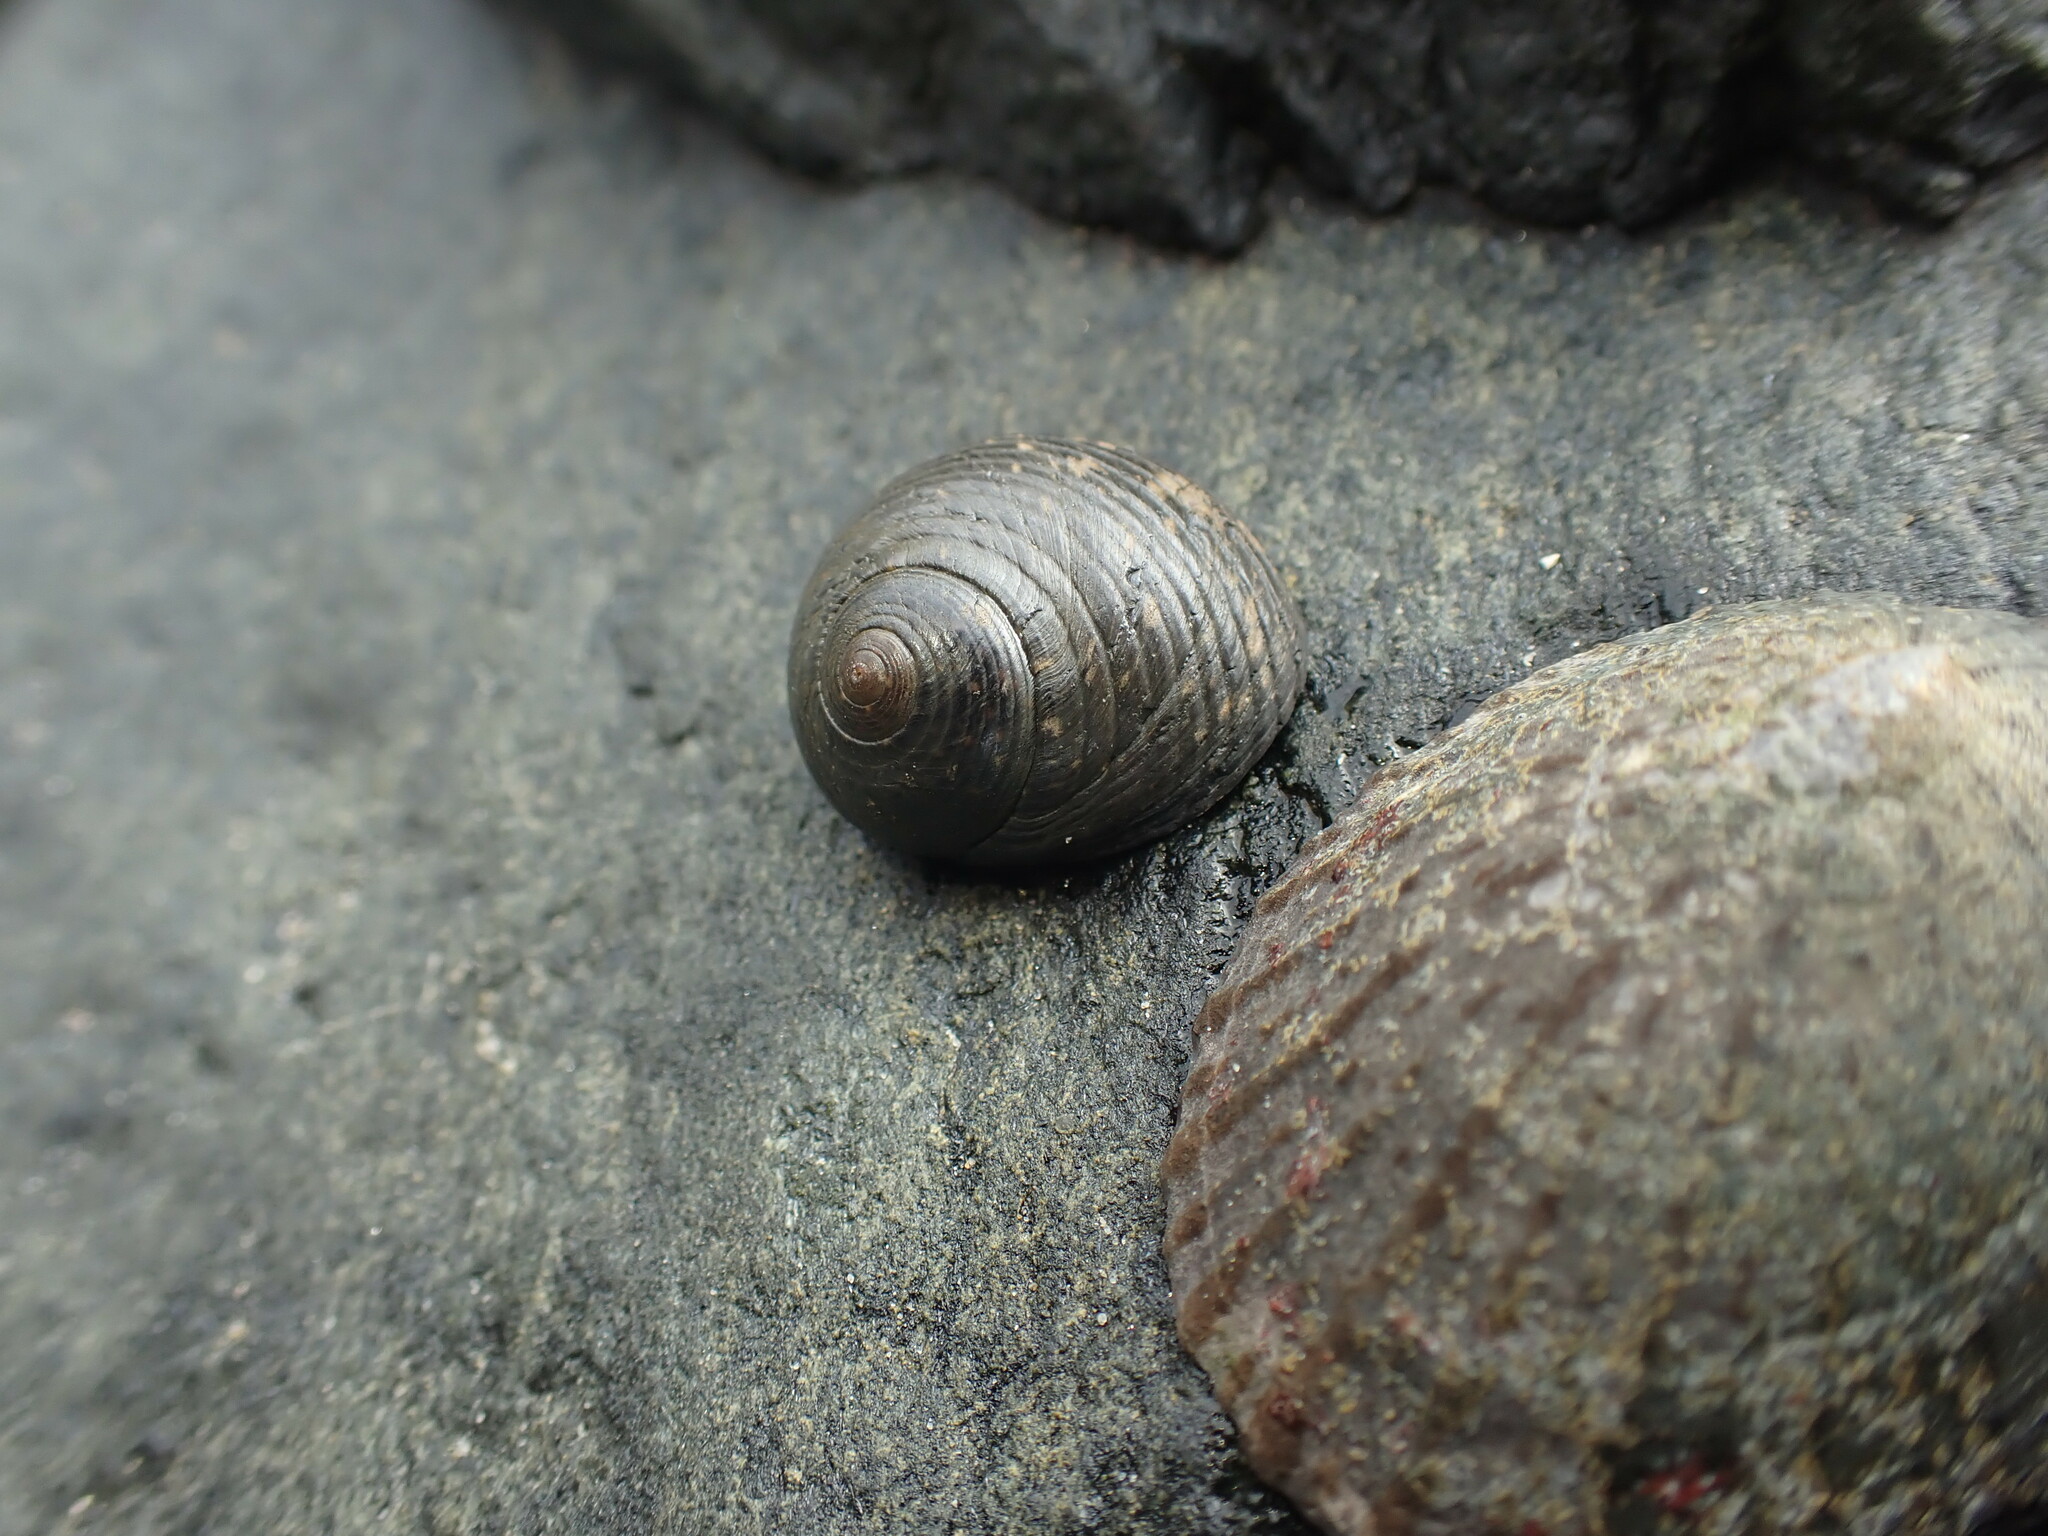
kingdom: Animalia
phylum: Mollusca
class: Gastropoda
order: Trochida
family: Trochidae
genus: Diloma
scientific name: Diloma zelandicum
